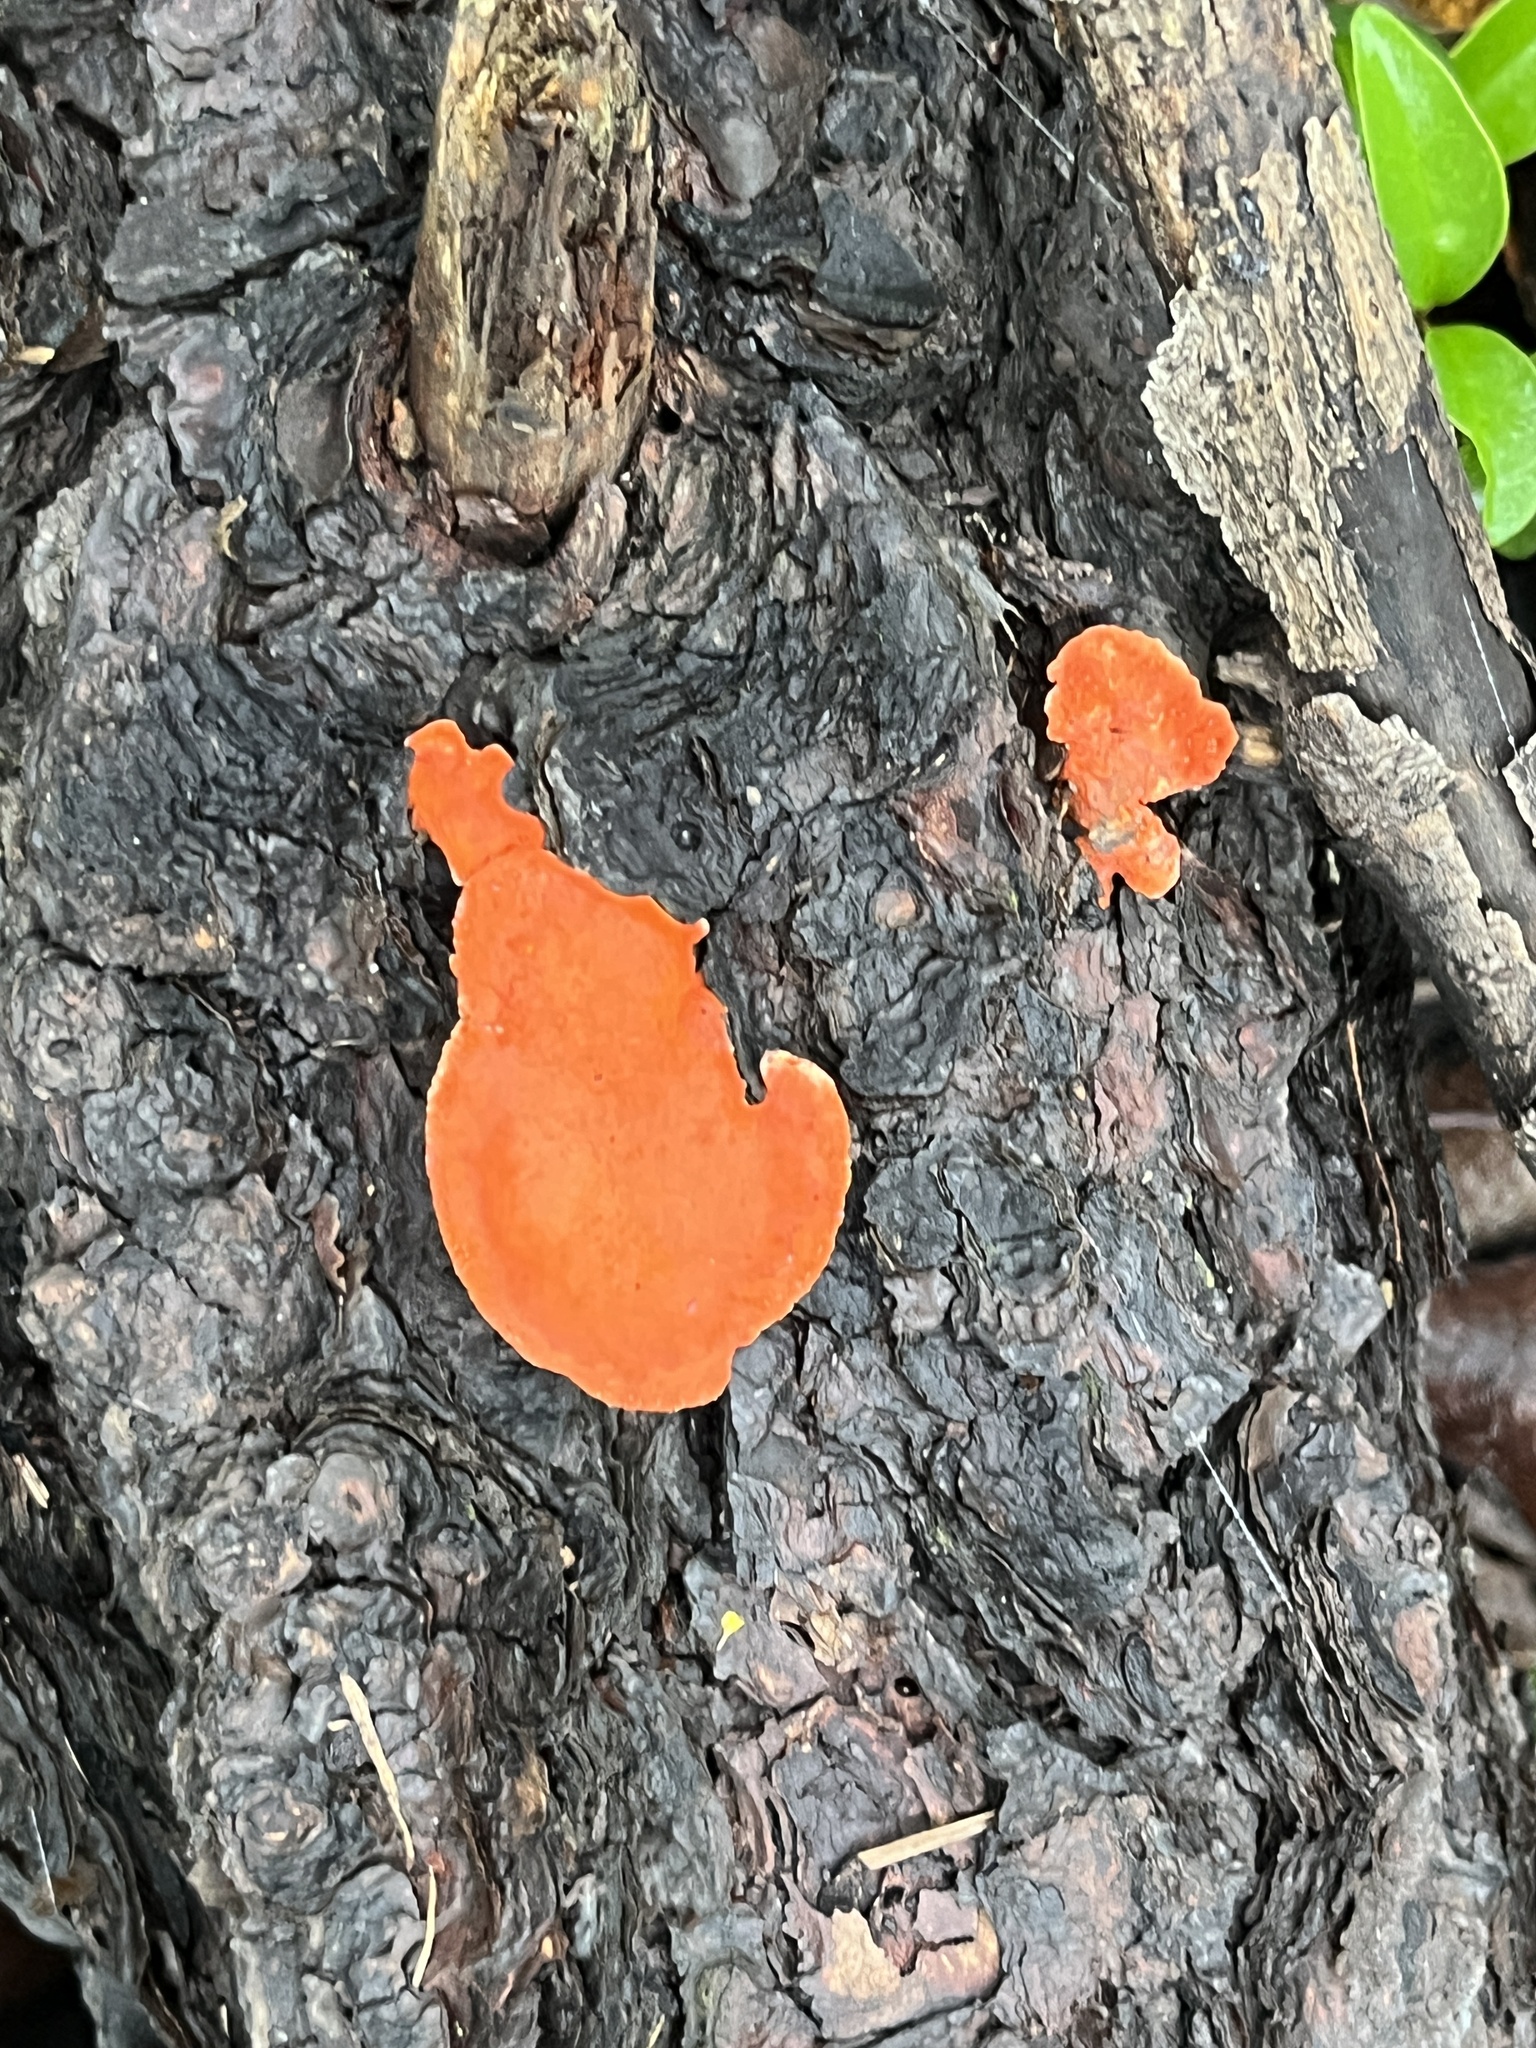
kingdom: Fungi
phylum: Basidiomycota
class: Agaricomycetes
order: Polyporales
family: Polyporaceae
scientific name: Polyporaceae
